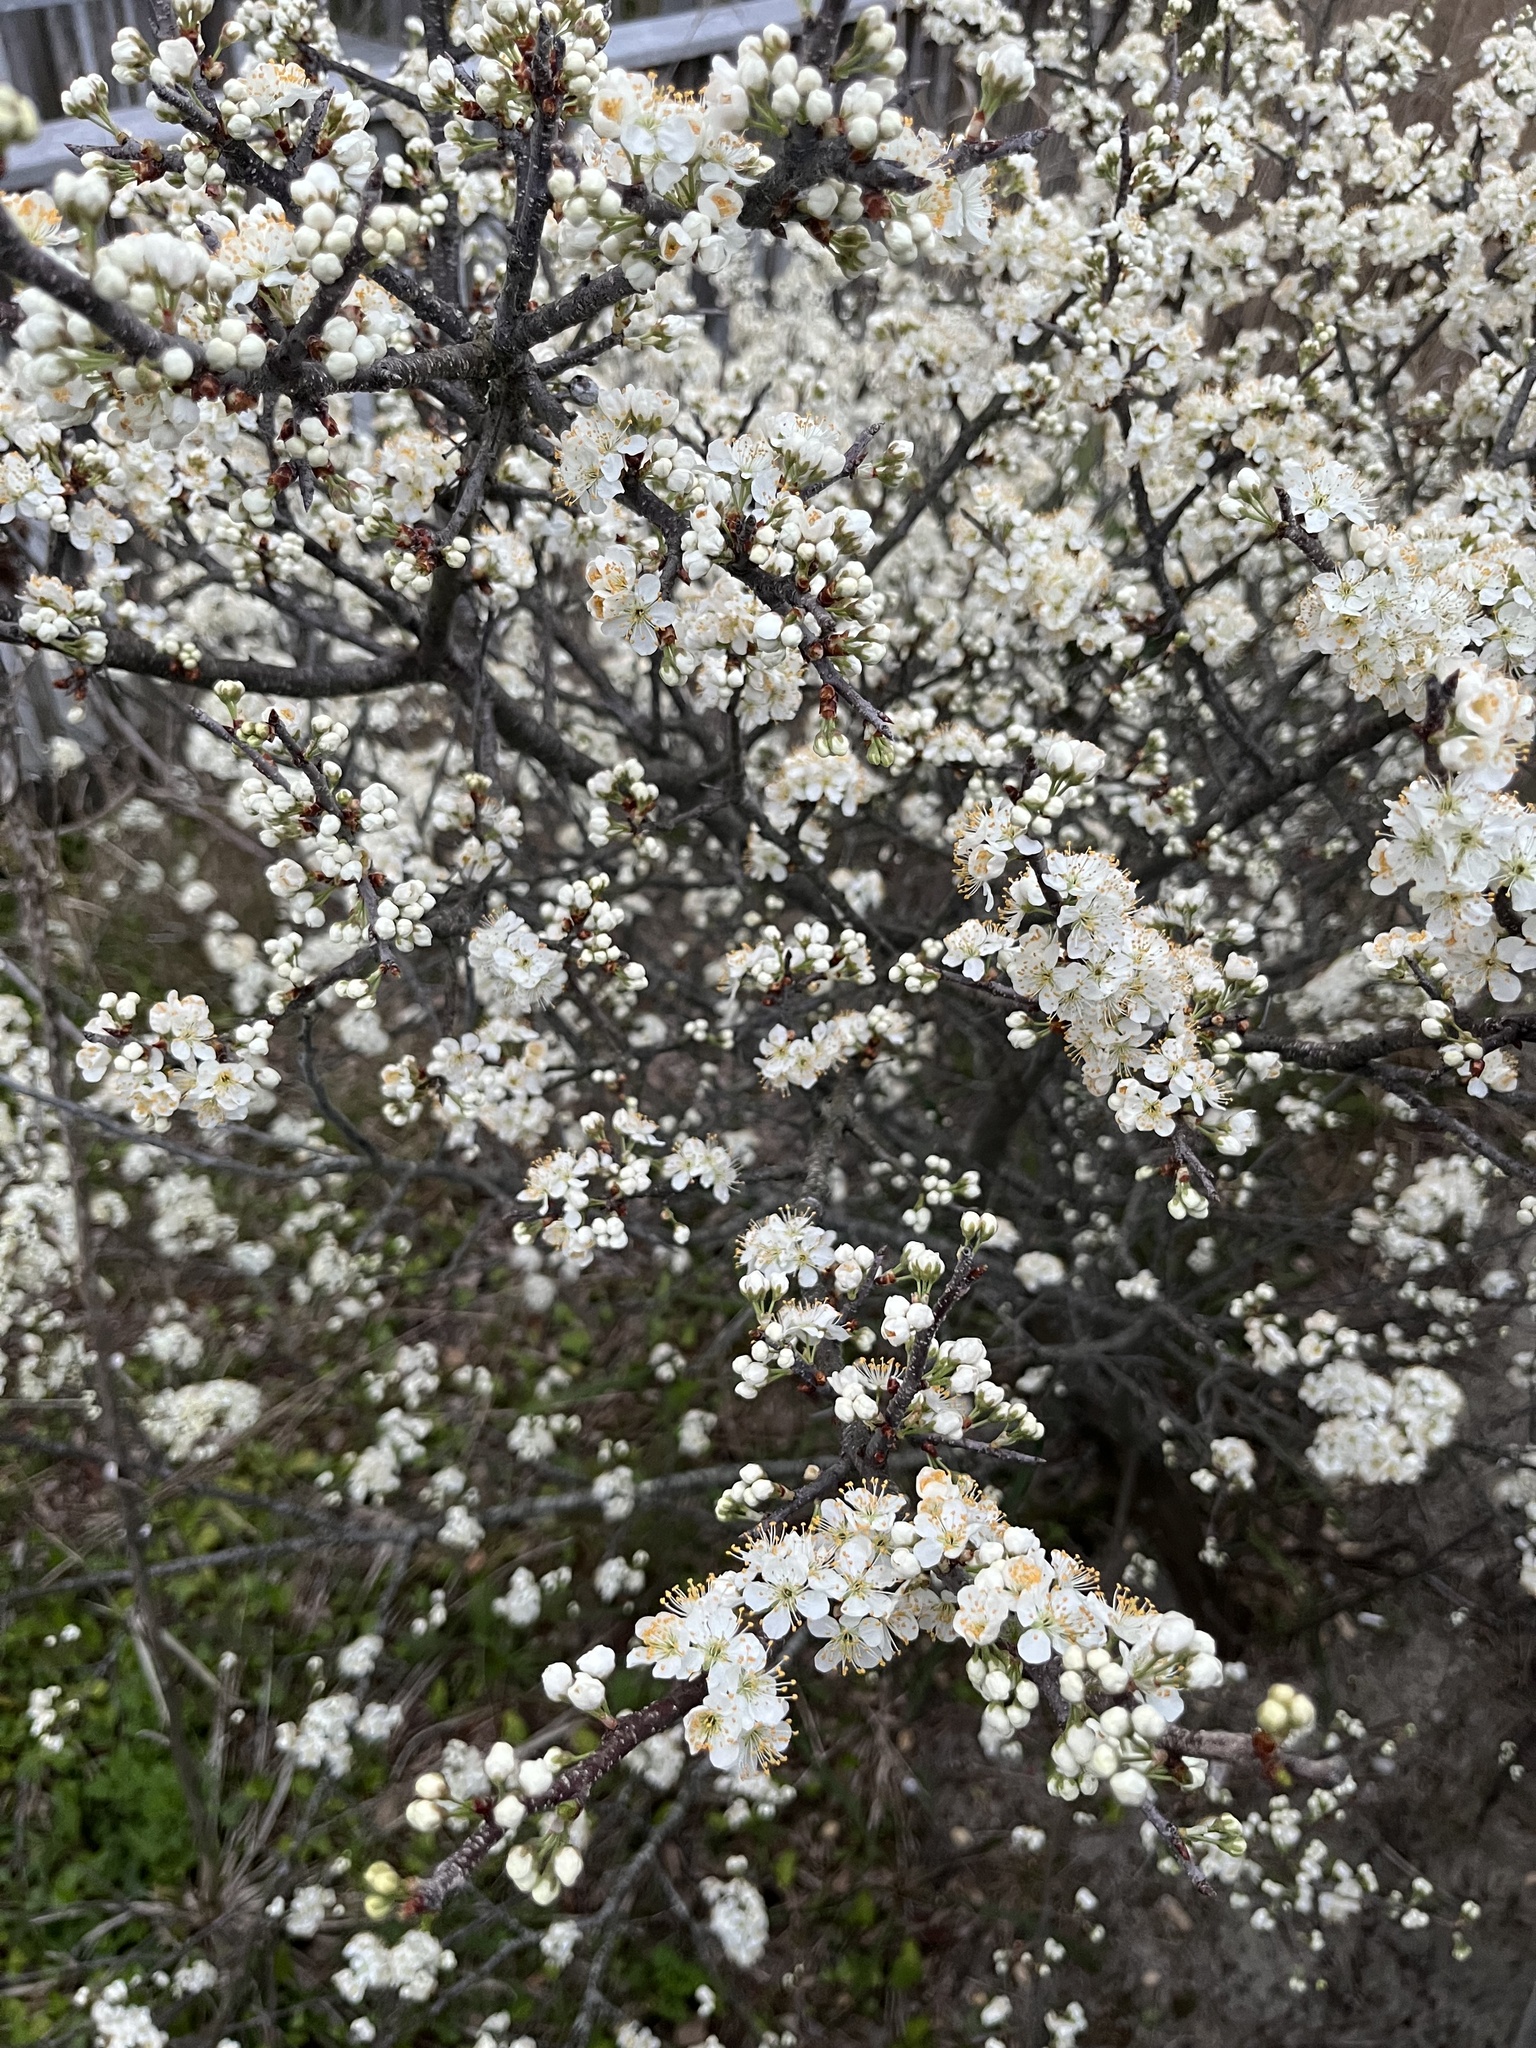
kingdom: Plantae
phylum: Tracheophyta
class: Magnoliopsida
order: Rosales
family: Rosaceae
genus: Prunus
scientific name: Prunus maritima
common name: Beach plum
